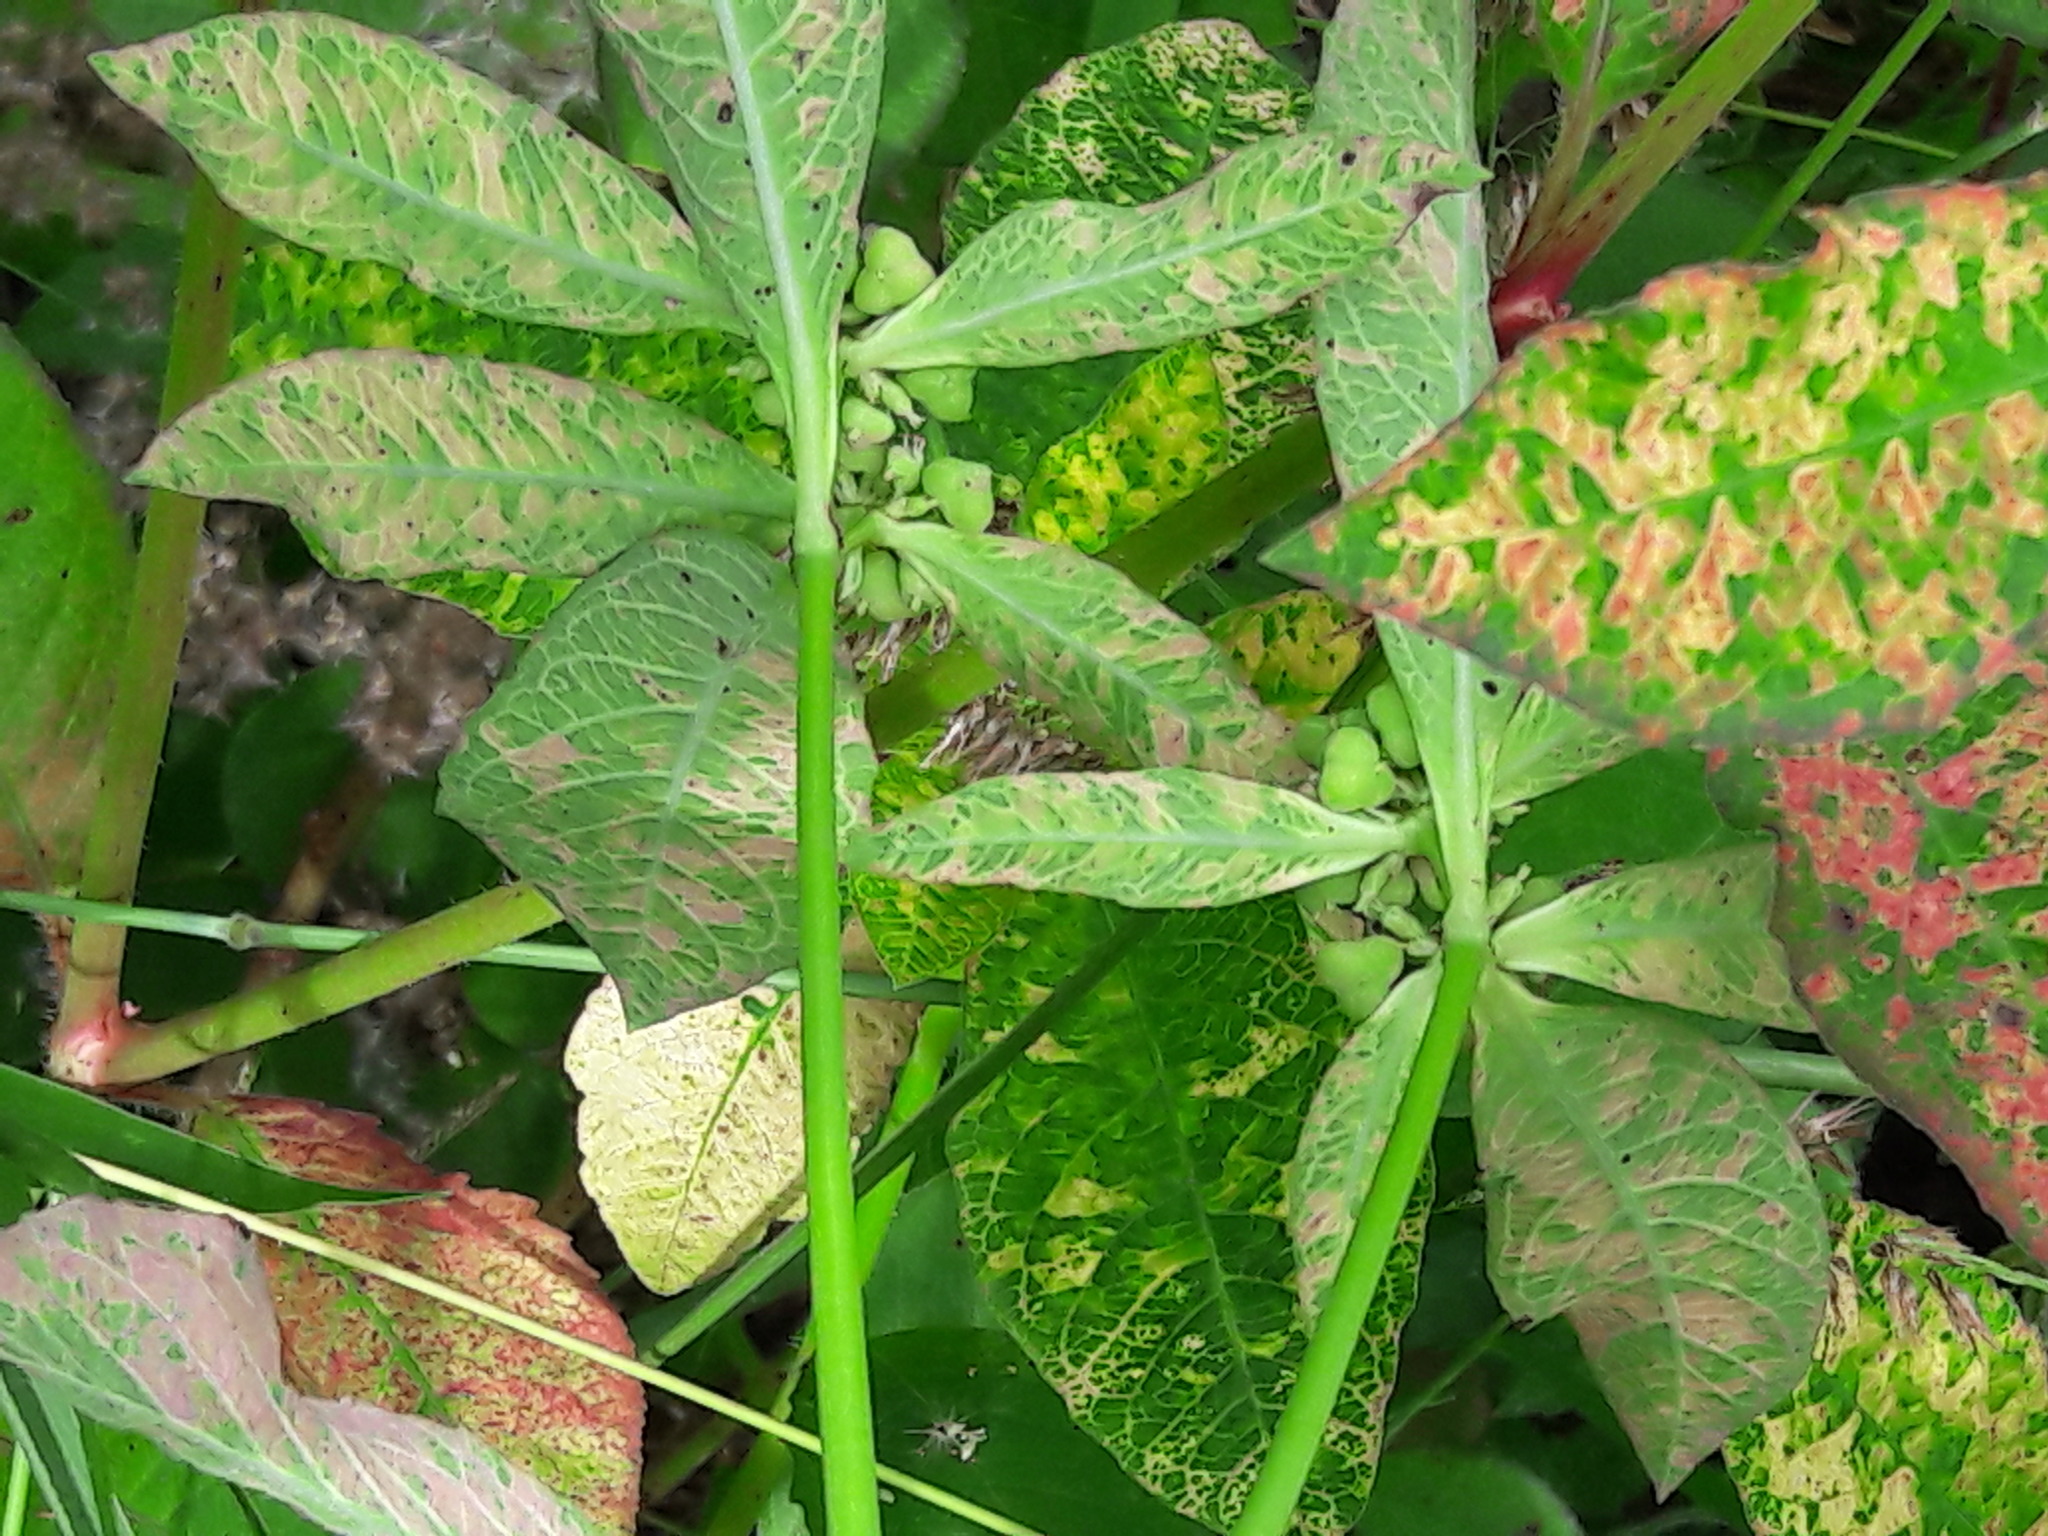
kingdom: Plantae
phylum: Tracheophyta
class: Magnoliopsida
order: Malpighiales
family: Euphorbiaceae
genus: Euphorbia
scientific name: Euphorbia heterophylla
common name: Mexican fireplant
